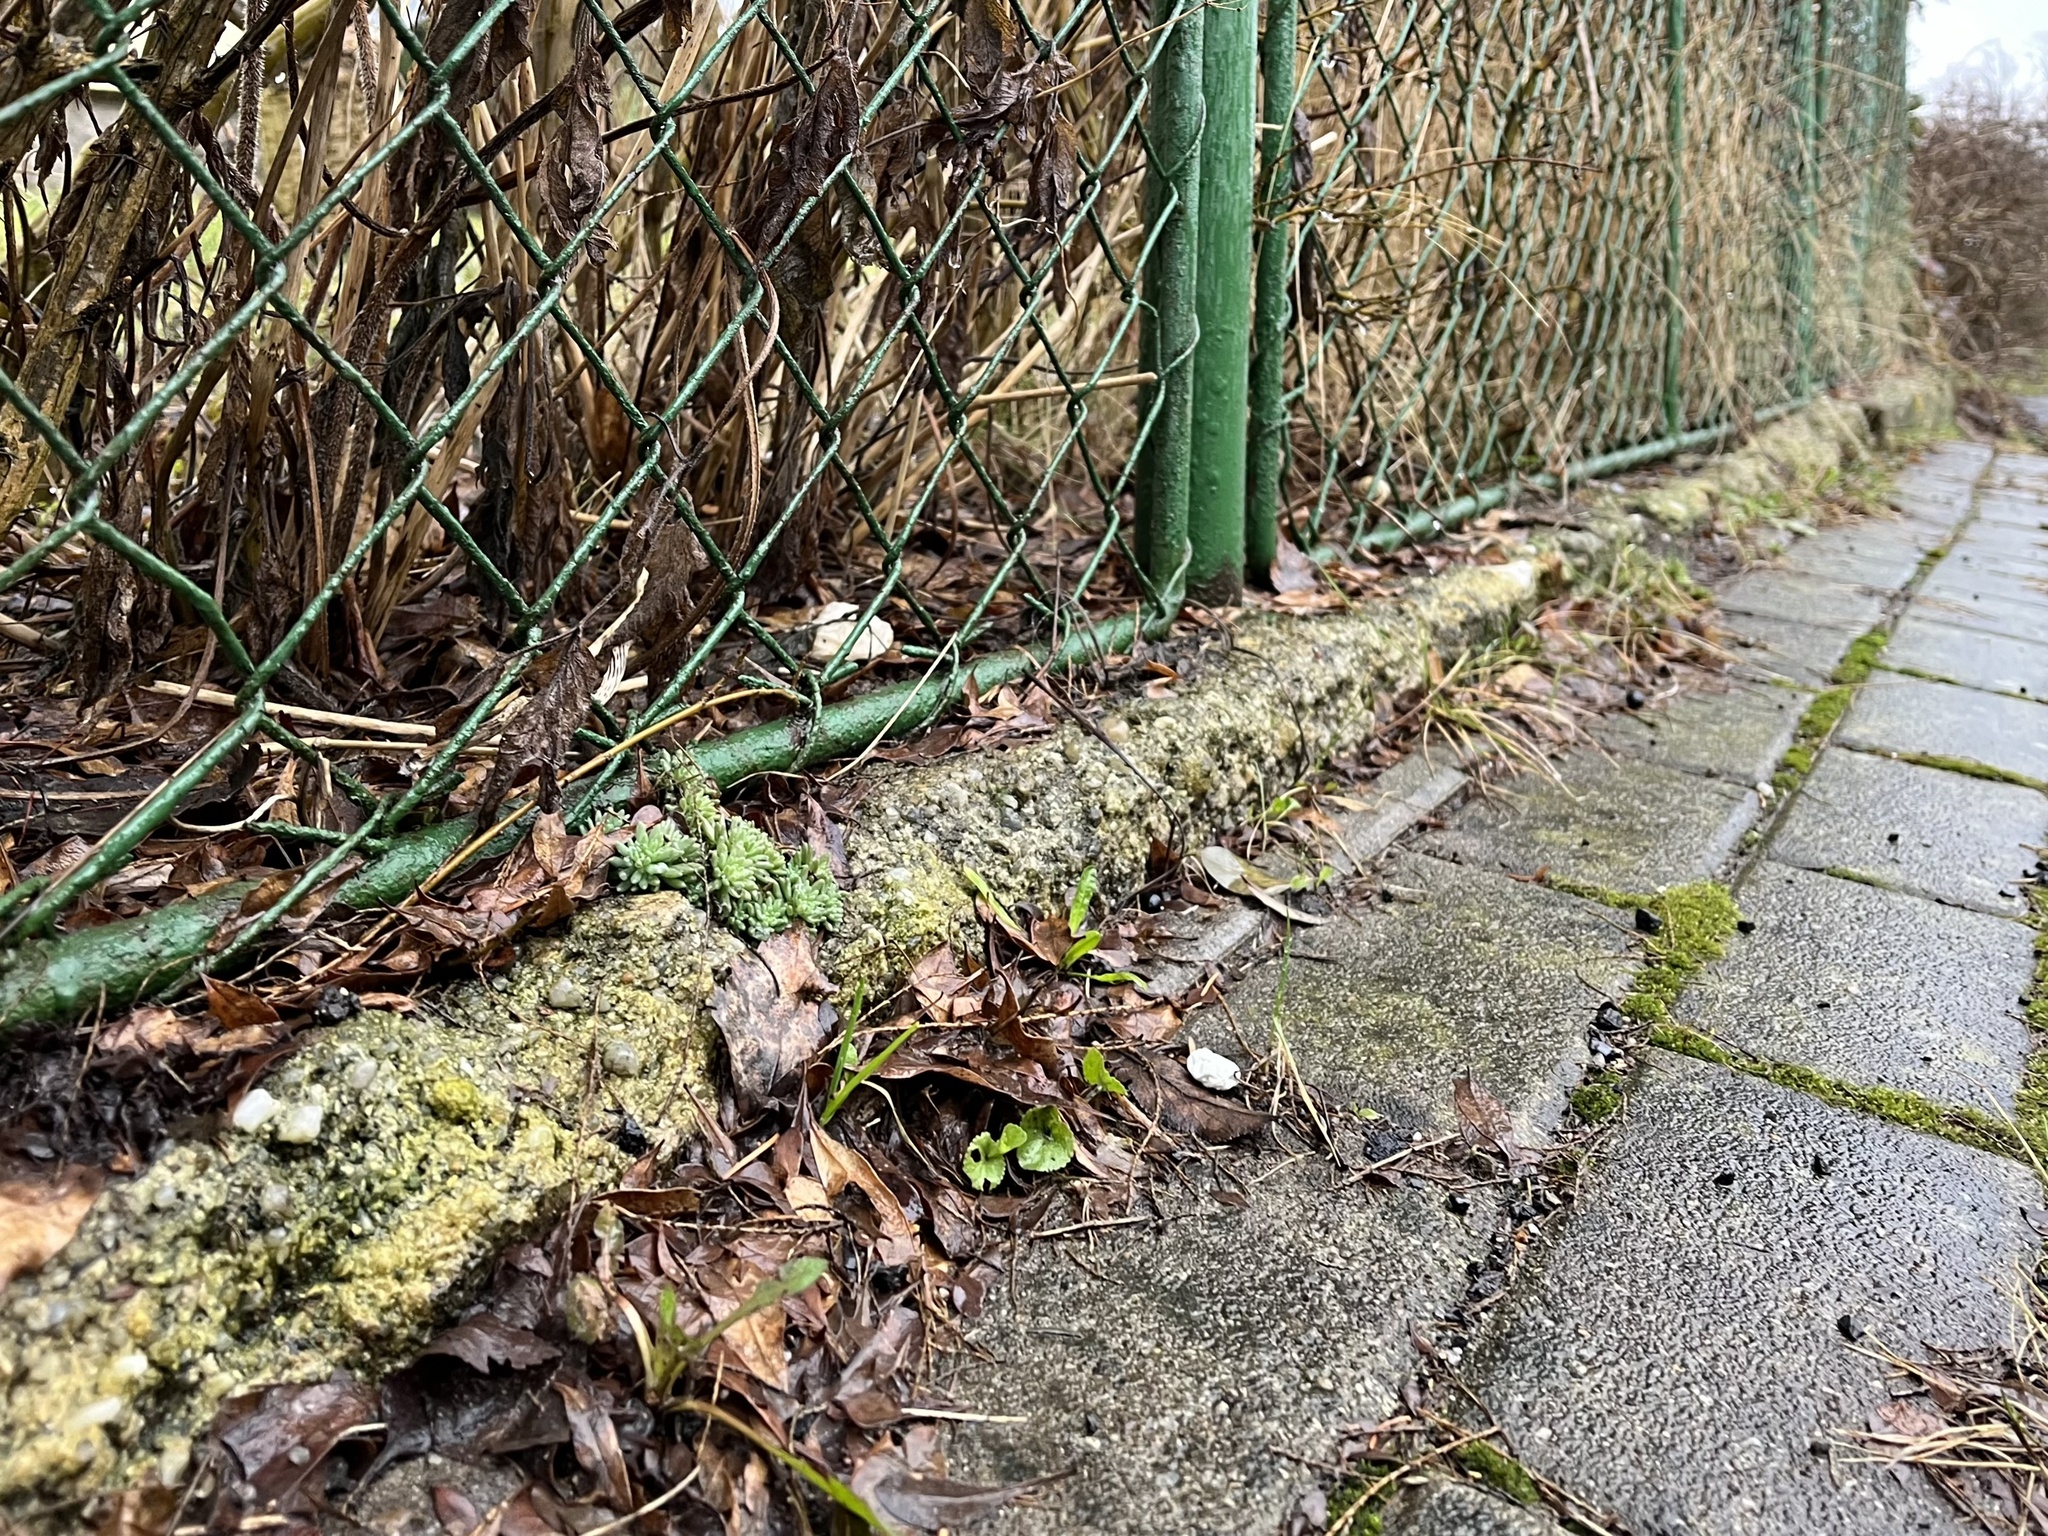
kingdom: Plantae
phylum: Tracheophyta
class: Magnoliopsida
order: Saxifragales
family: Crassulaceae
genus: Sedum
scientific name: Sedum hispanicum
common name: Spanish stonecrop
